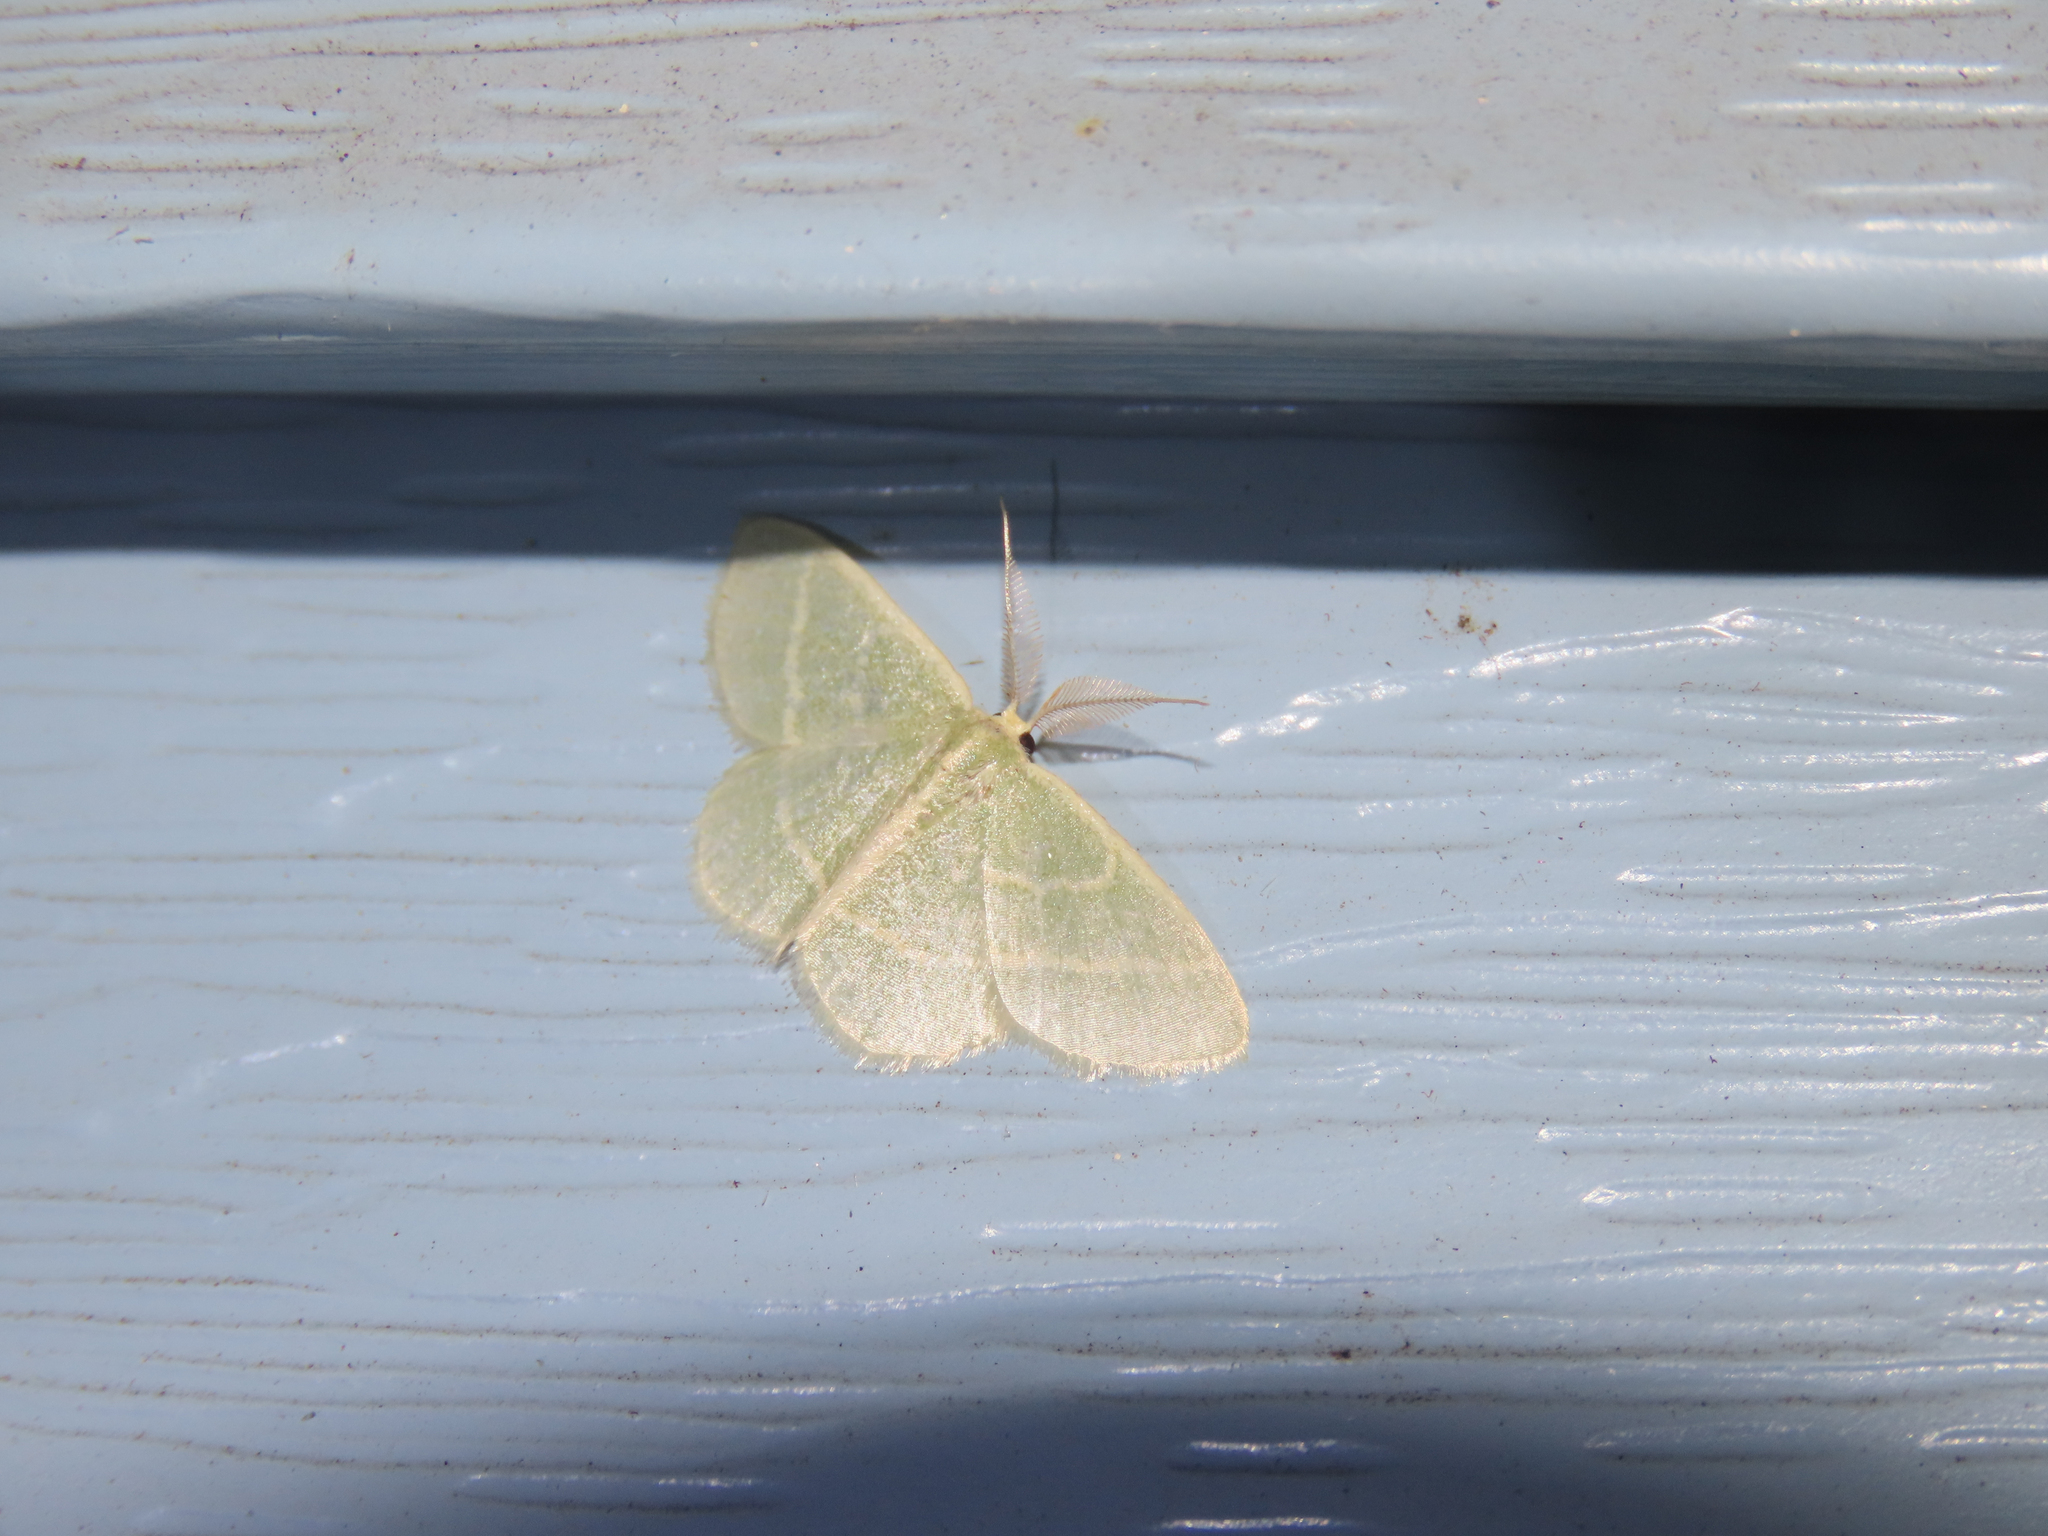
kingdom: Animalia
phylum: Arthropoda
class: Insecta
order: Lepidoptera
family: Geometridae
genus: Chlorochlamys
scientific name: Chlorochlamys chloroleucaria
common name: Blackberry looper
